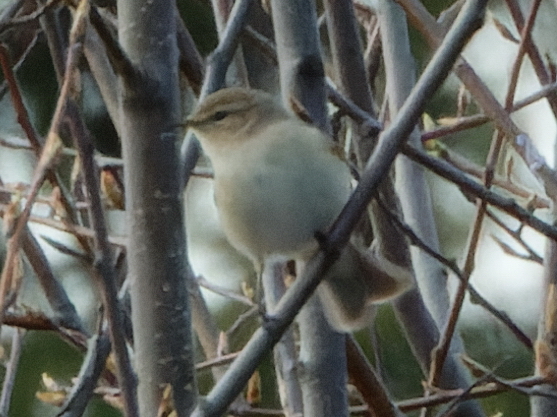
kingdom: Animalia
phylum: Chordata
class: Aves
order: Passeriformes
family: Phylloscopidae
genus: Phylloscopus
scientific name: Phylloscopus collybita
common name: Common chiffchaff
